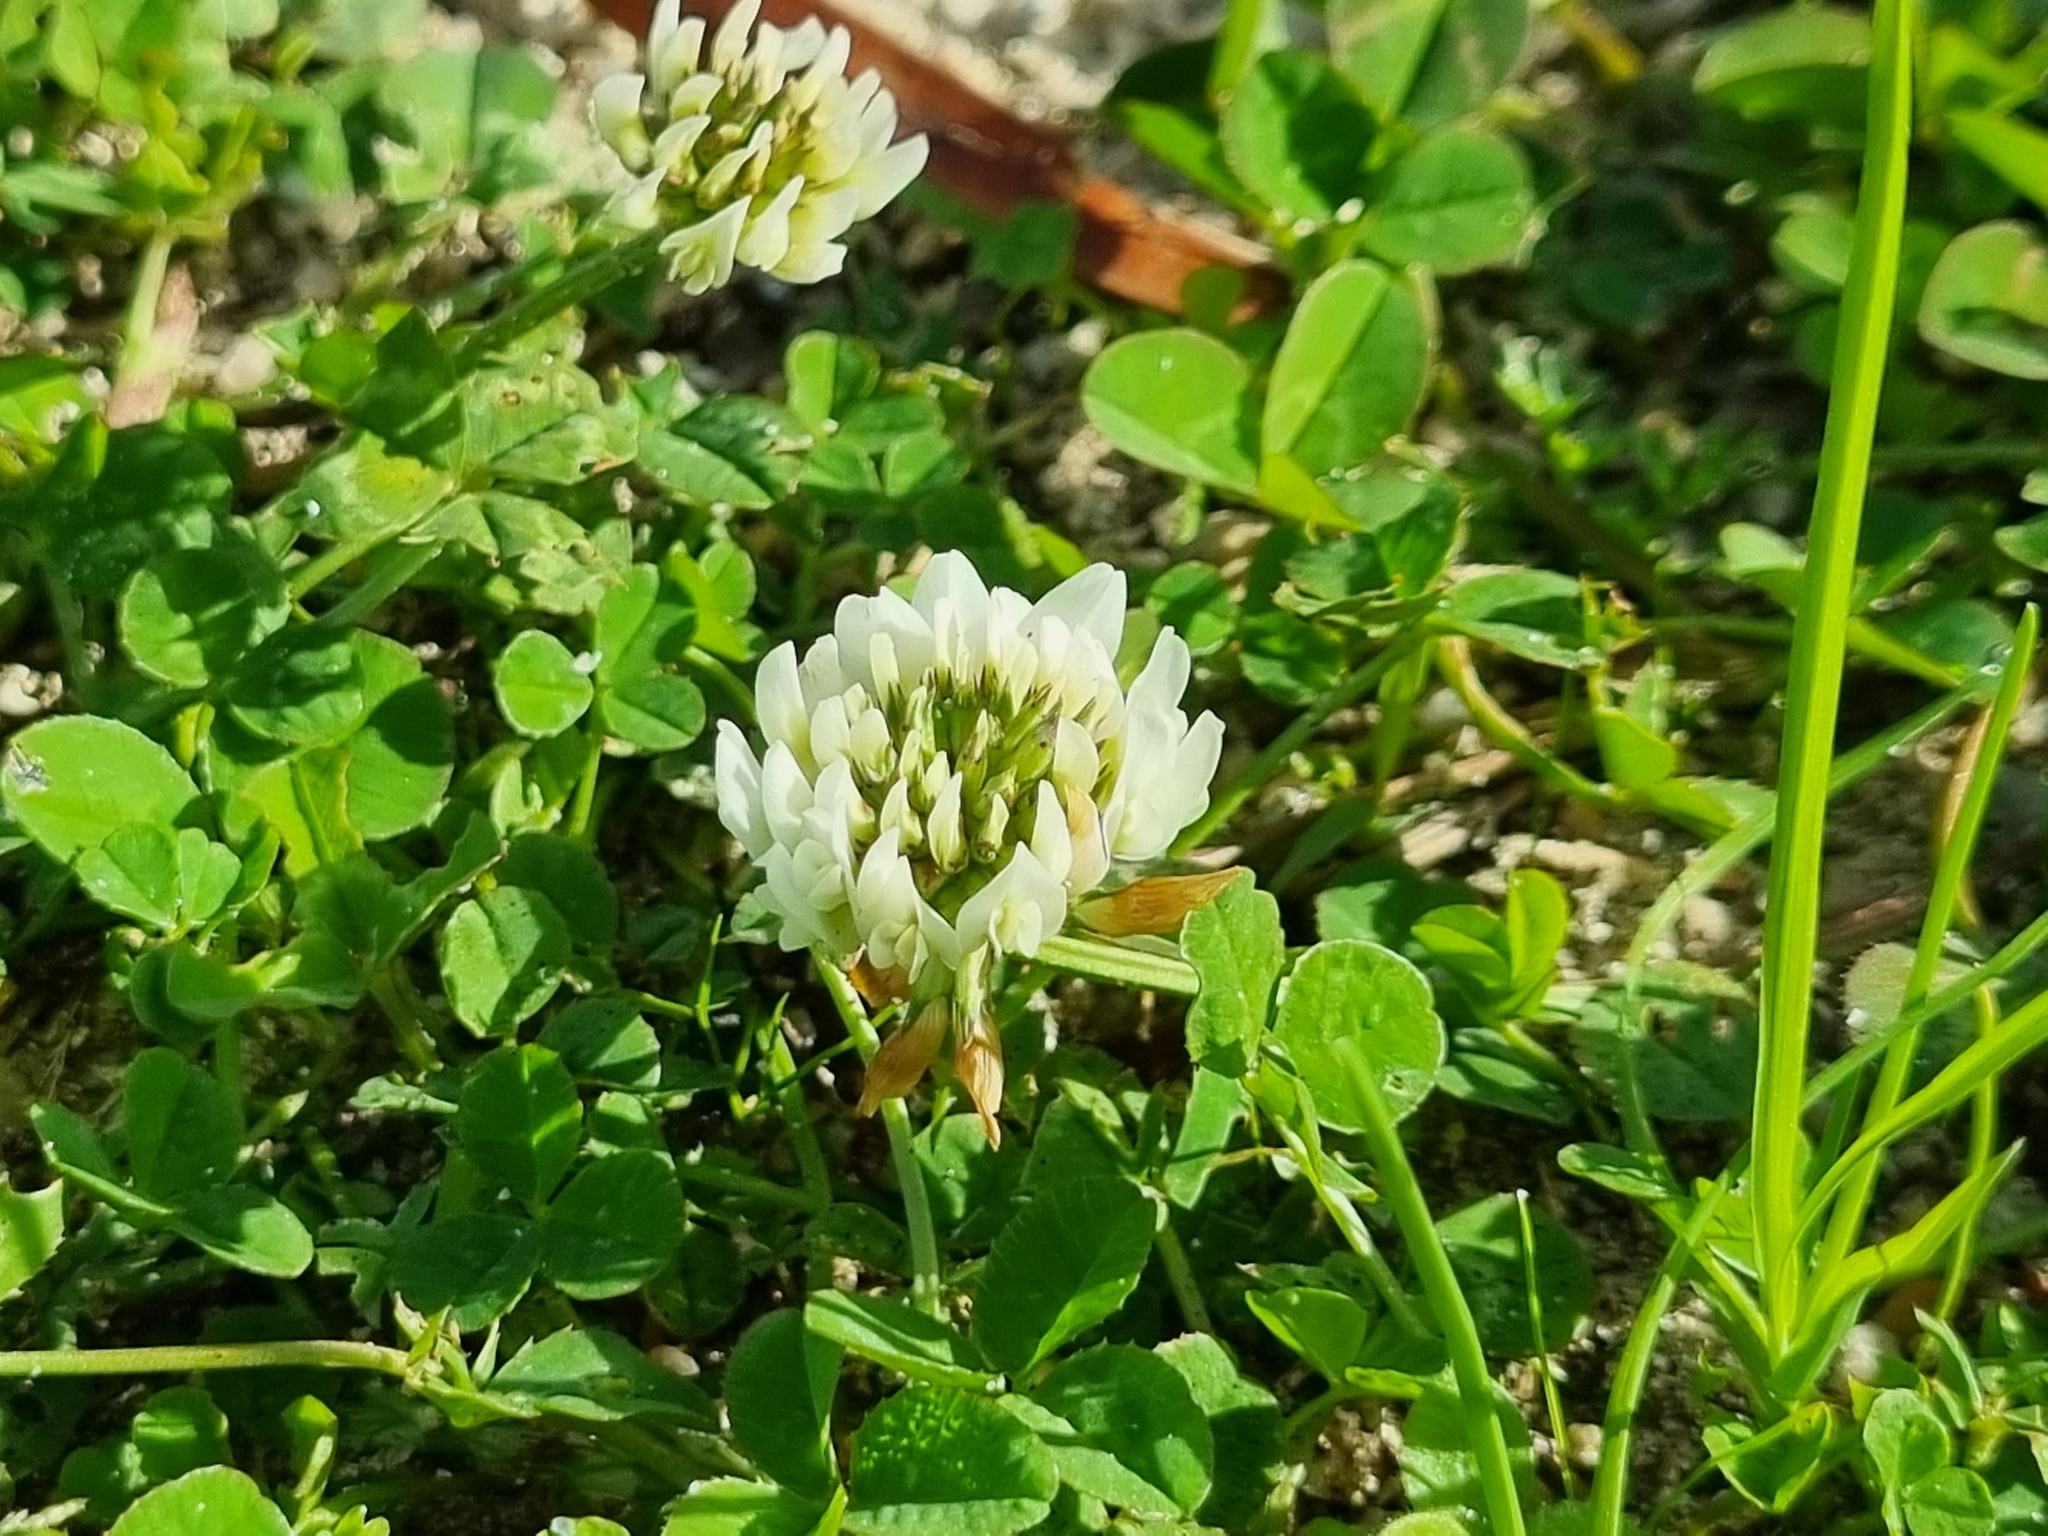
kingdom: Plantae
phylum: Tracheophyta
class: Magnoliopsida
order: Fabales
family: Fabaceae
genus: Trifolium
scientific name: Trifolium repens
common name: White clover
